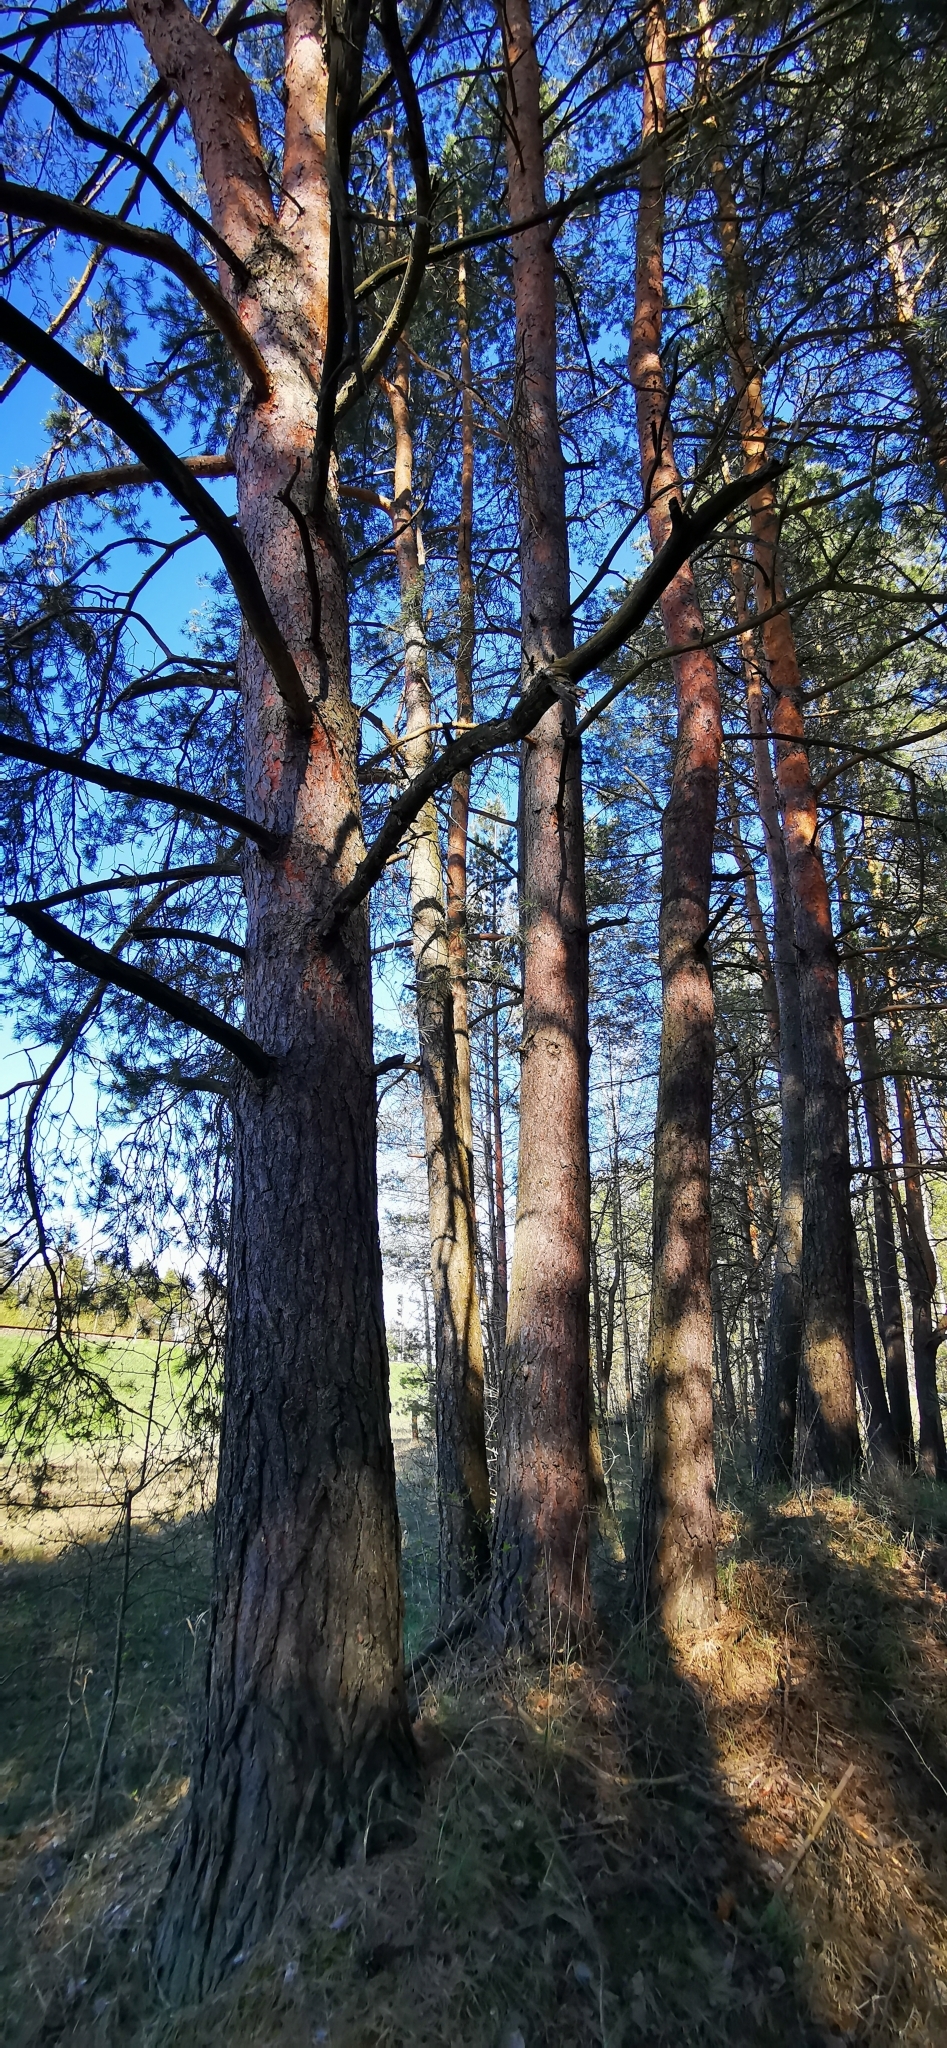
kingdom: Plantae
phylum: Tracheophyta
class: Pinopsida
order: Pinales
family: Pinaceae
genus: Pinus
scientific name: Pinus sylvestris
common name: Scots pine
